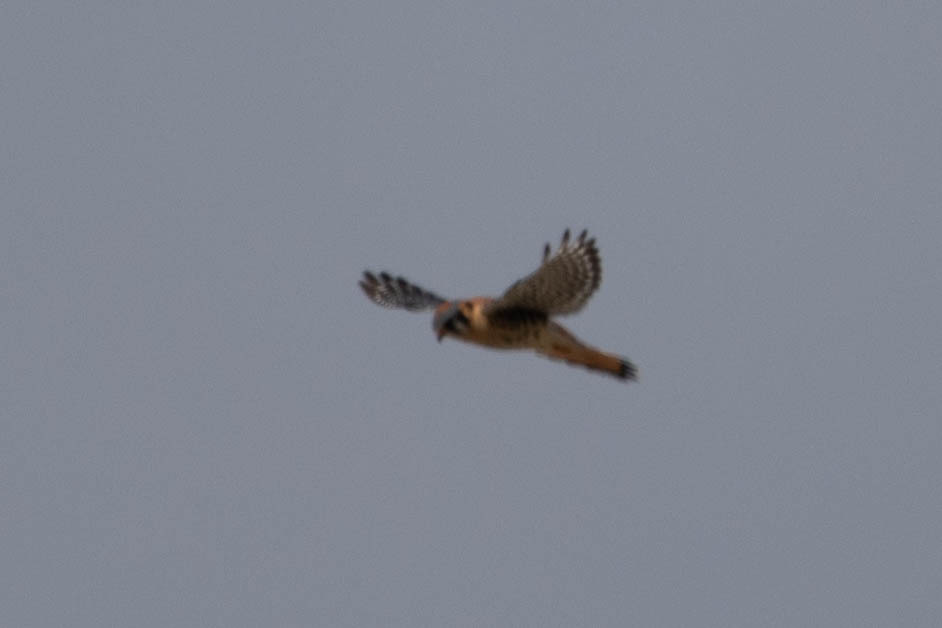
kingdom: Animalia
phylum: Chordata
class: Aves
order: Falconiformes
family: Falconidae
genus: Falco
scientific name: Falco sparverius
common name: American kestrel
